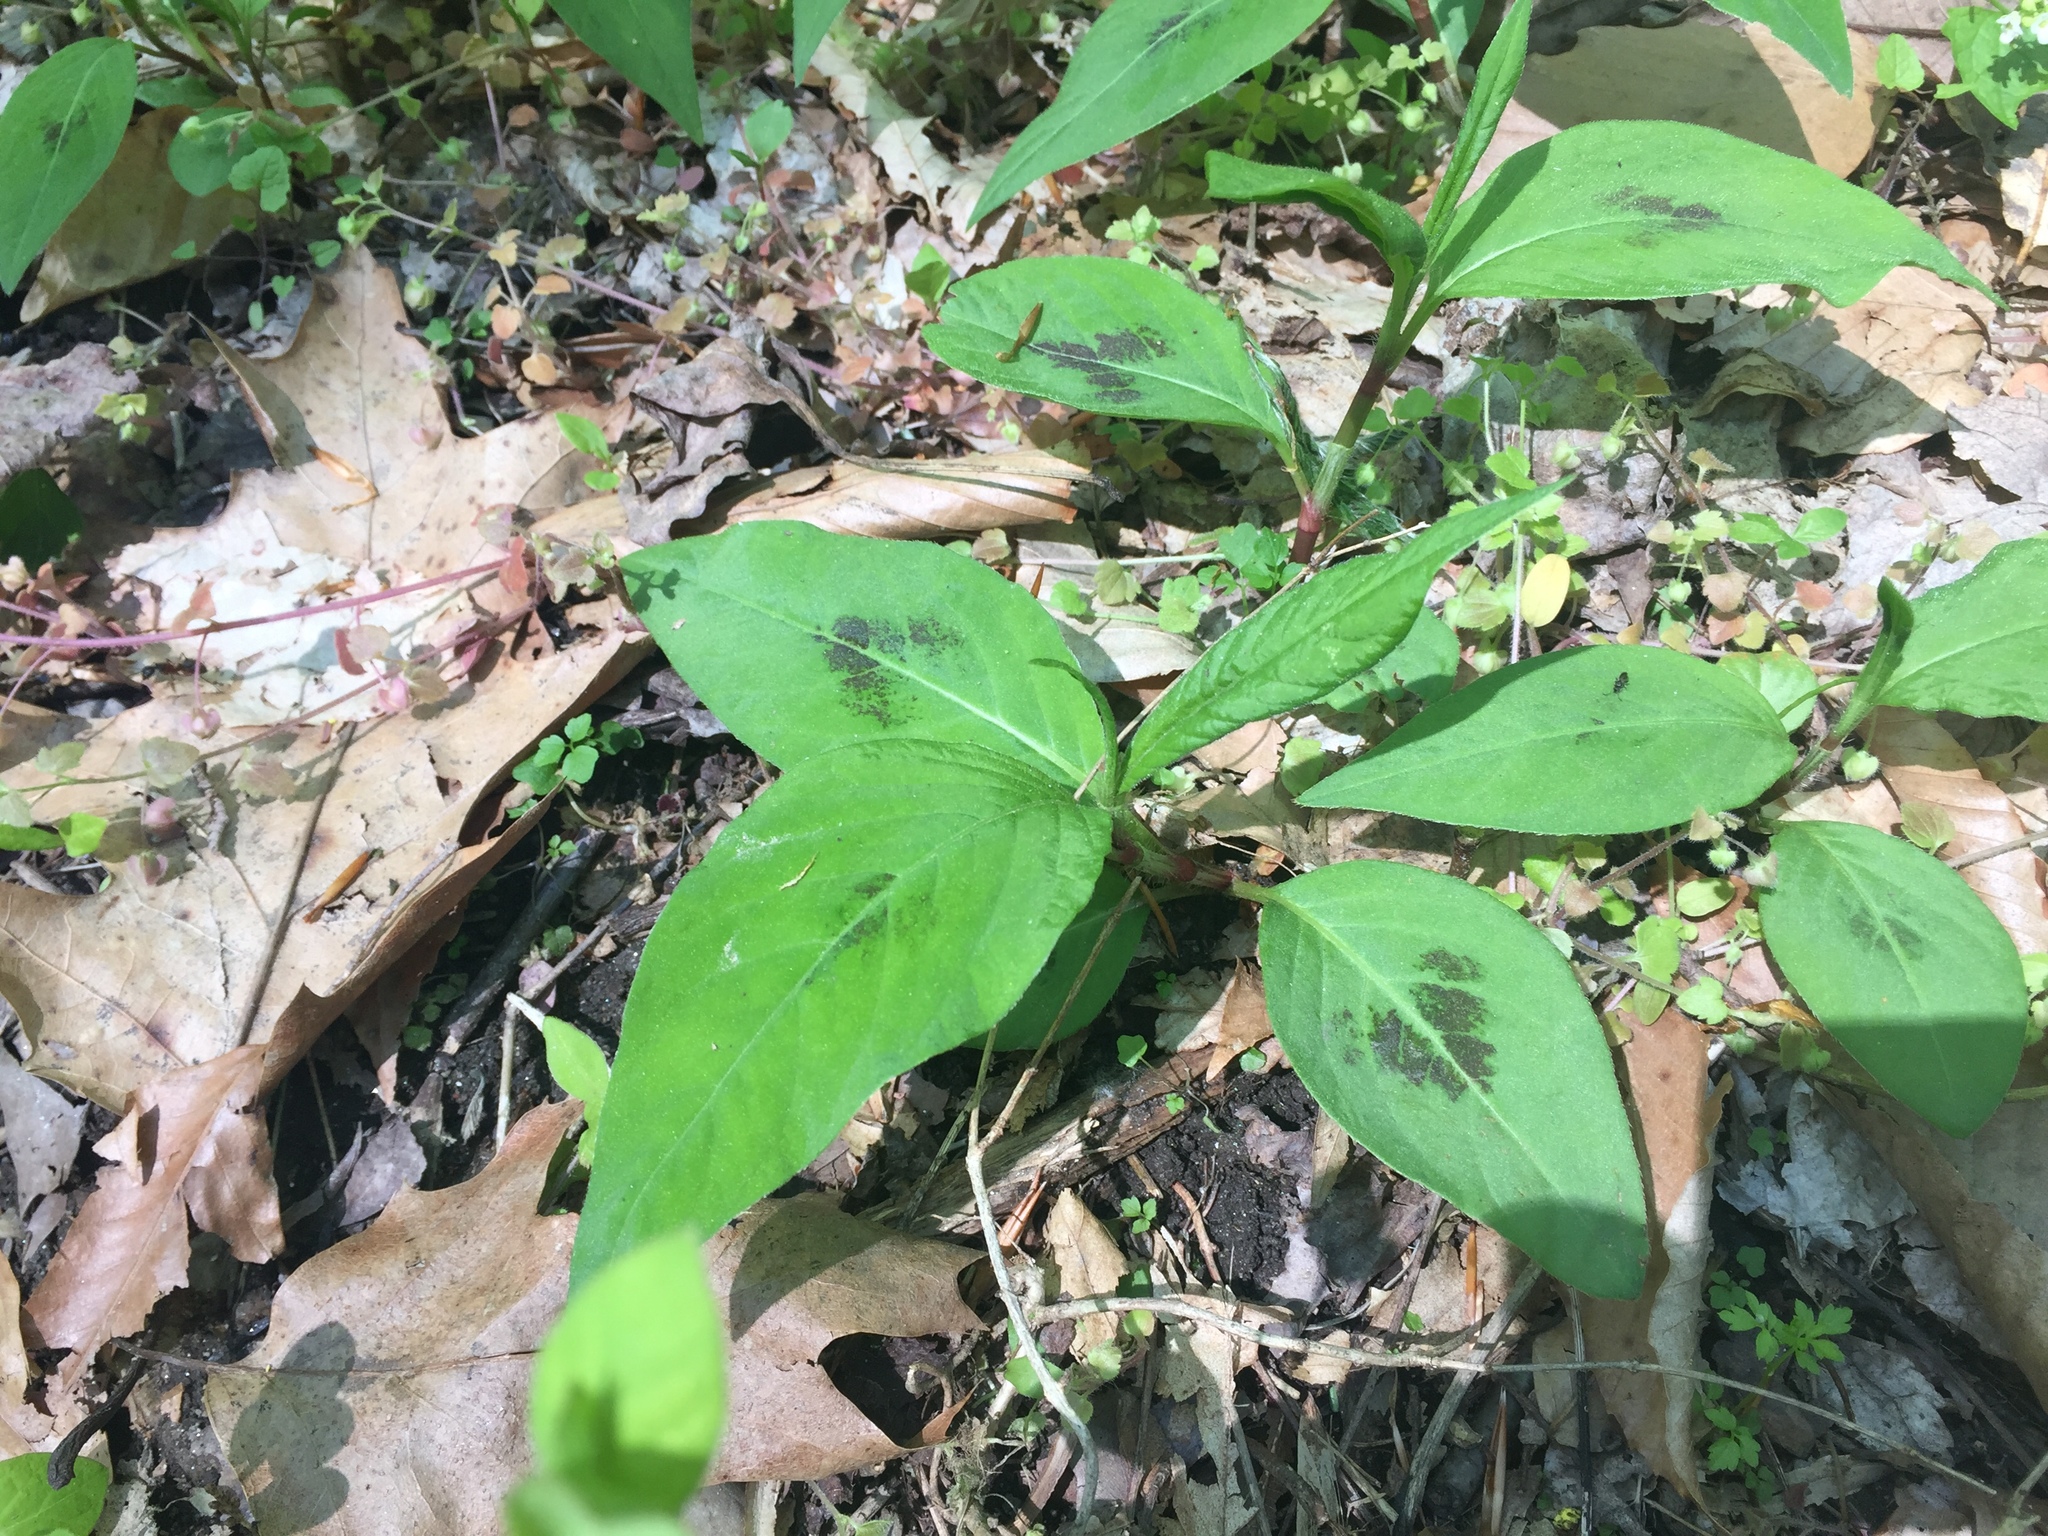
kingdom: Plantae
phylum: Tracheophyta
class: Magnoliopsida
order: Caryophyllales
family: Polygonaceae
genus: Persicaria
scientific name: Persicaria virginiana
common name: Jumpseed
